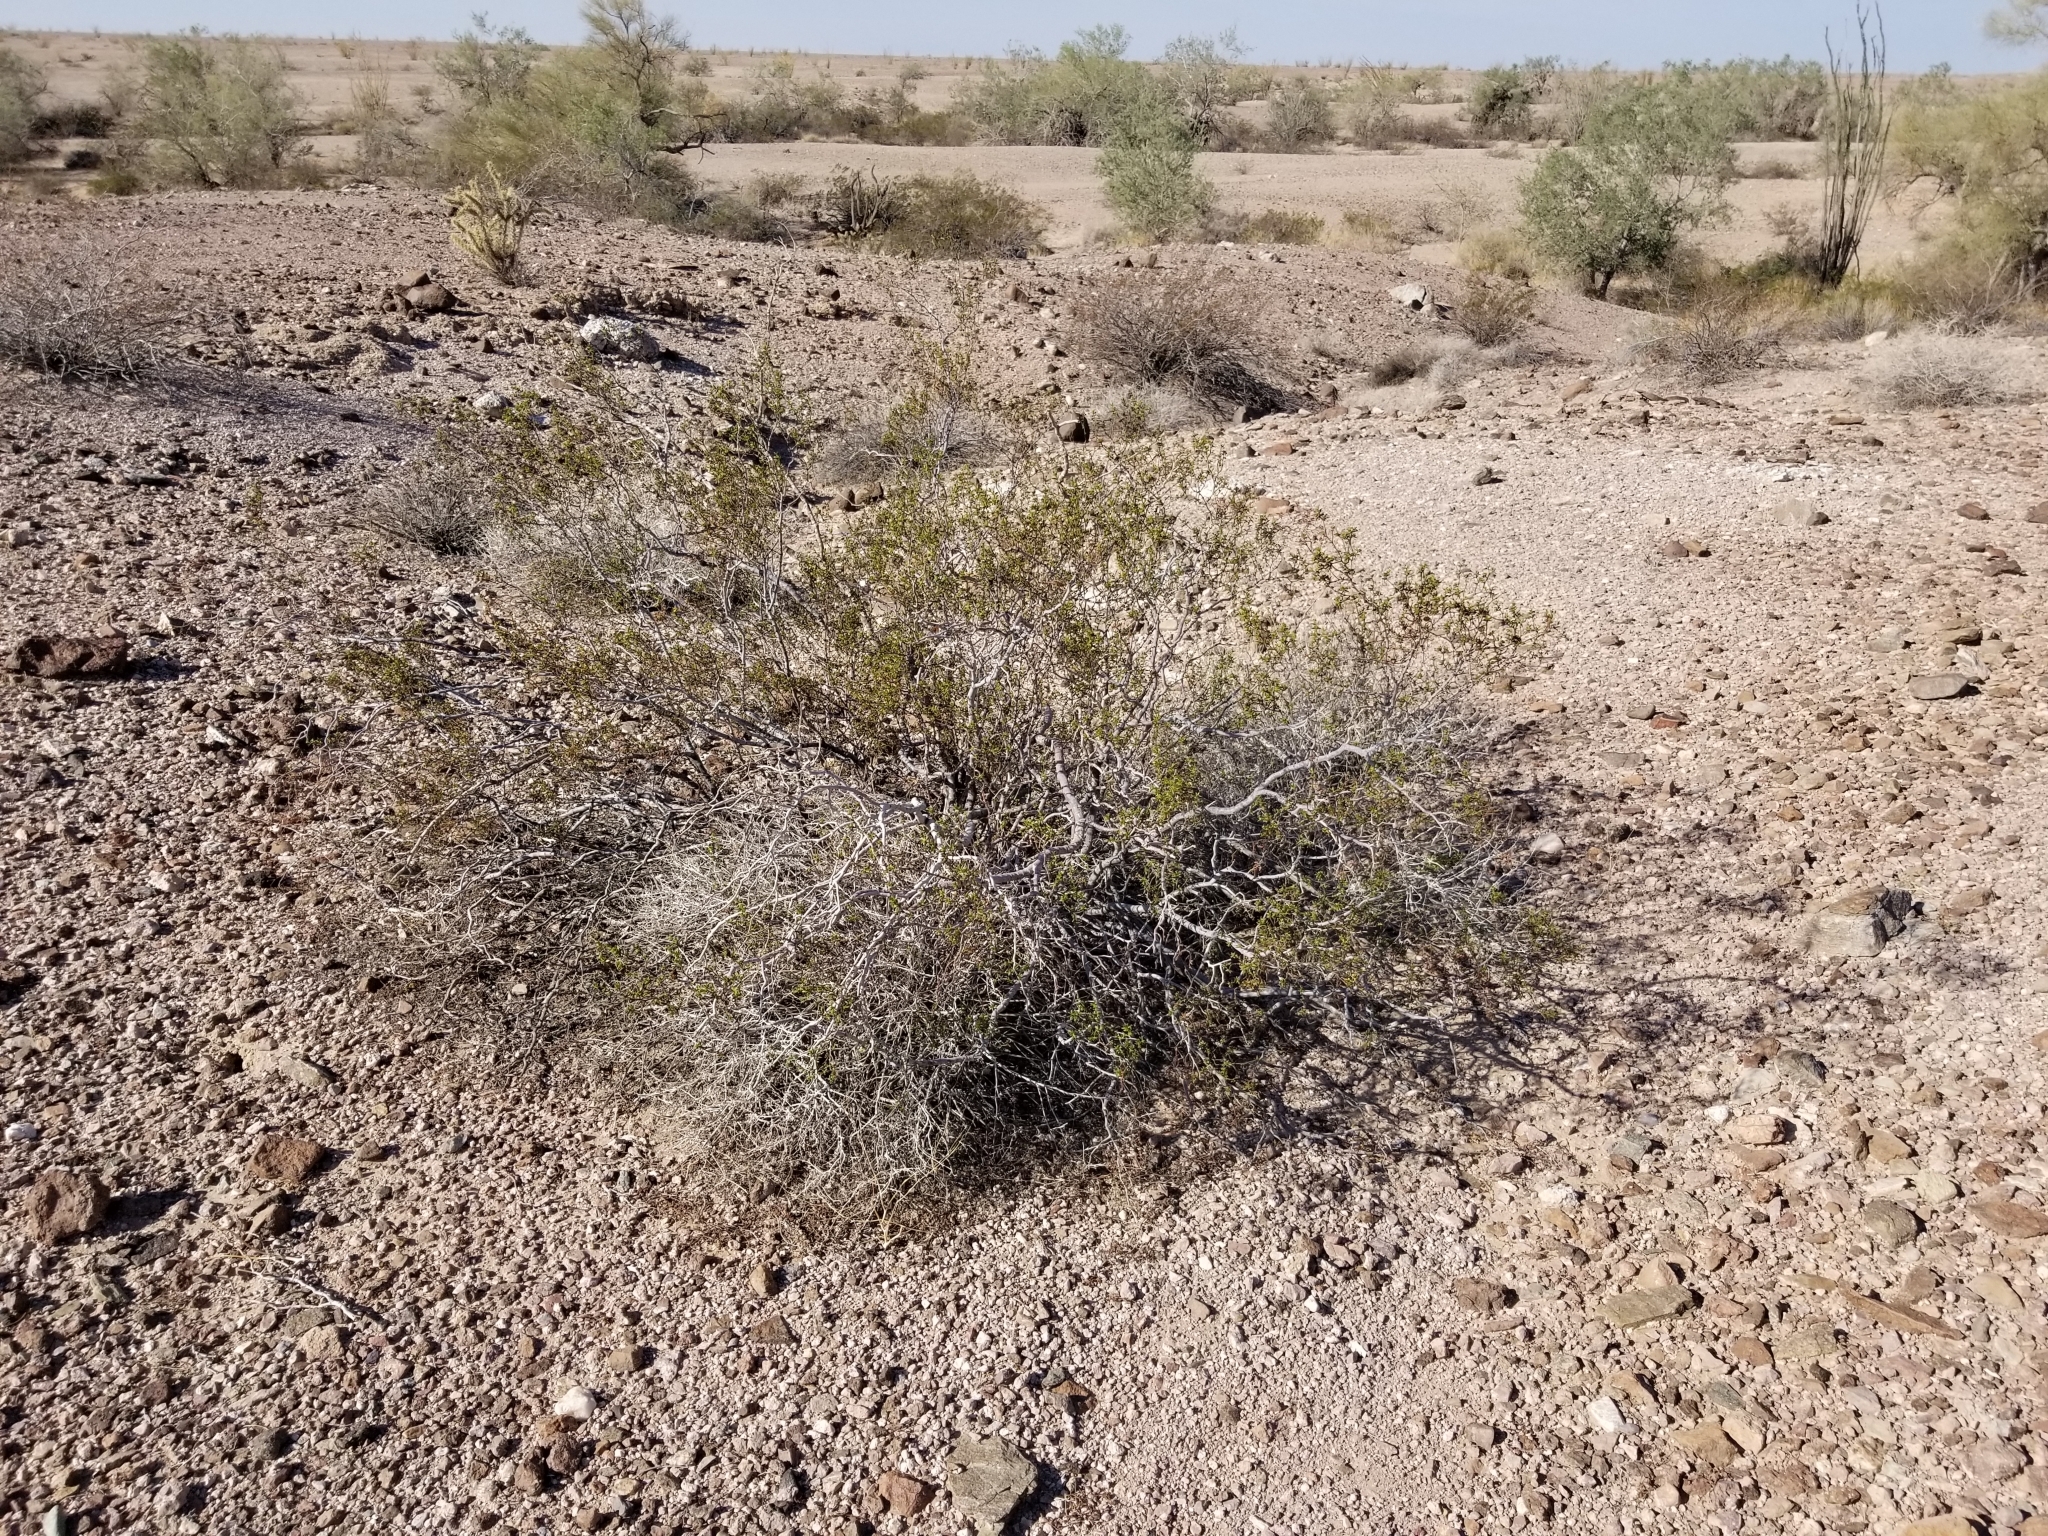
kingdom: Animalia
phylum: Arthropoda
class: Insecta
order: Diptera
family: Cecidomyiidae
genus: Asphondylia
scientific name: Asphondylia foliosa
